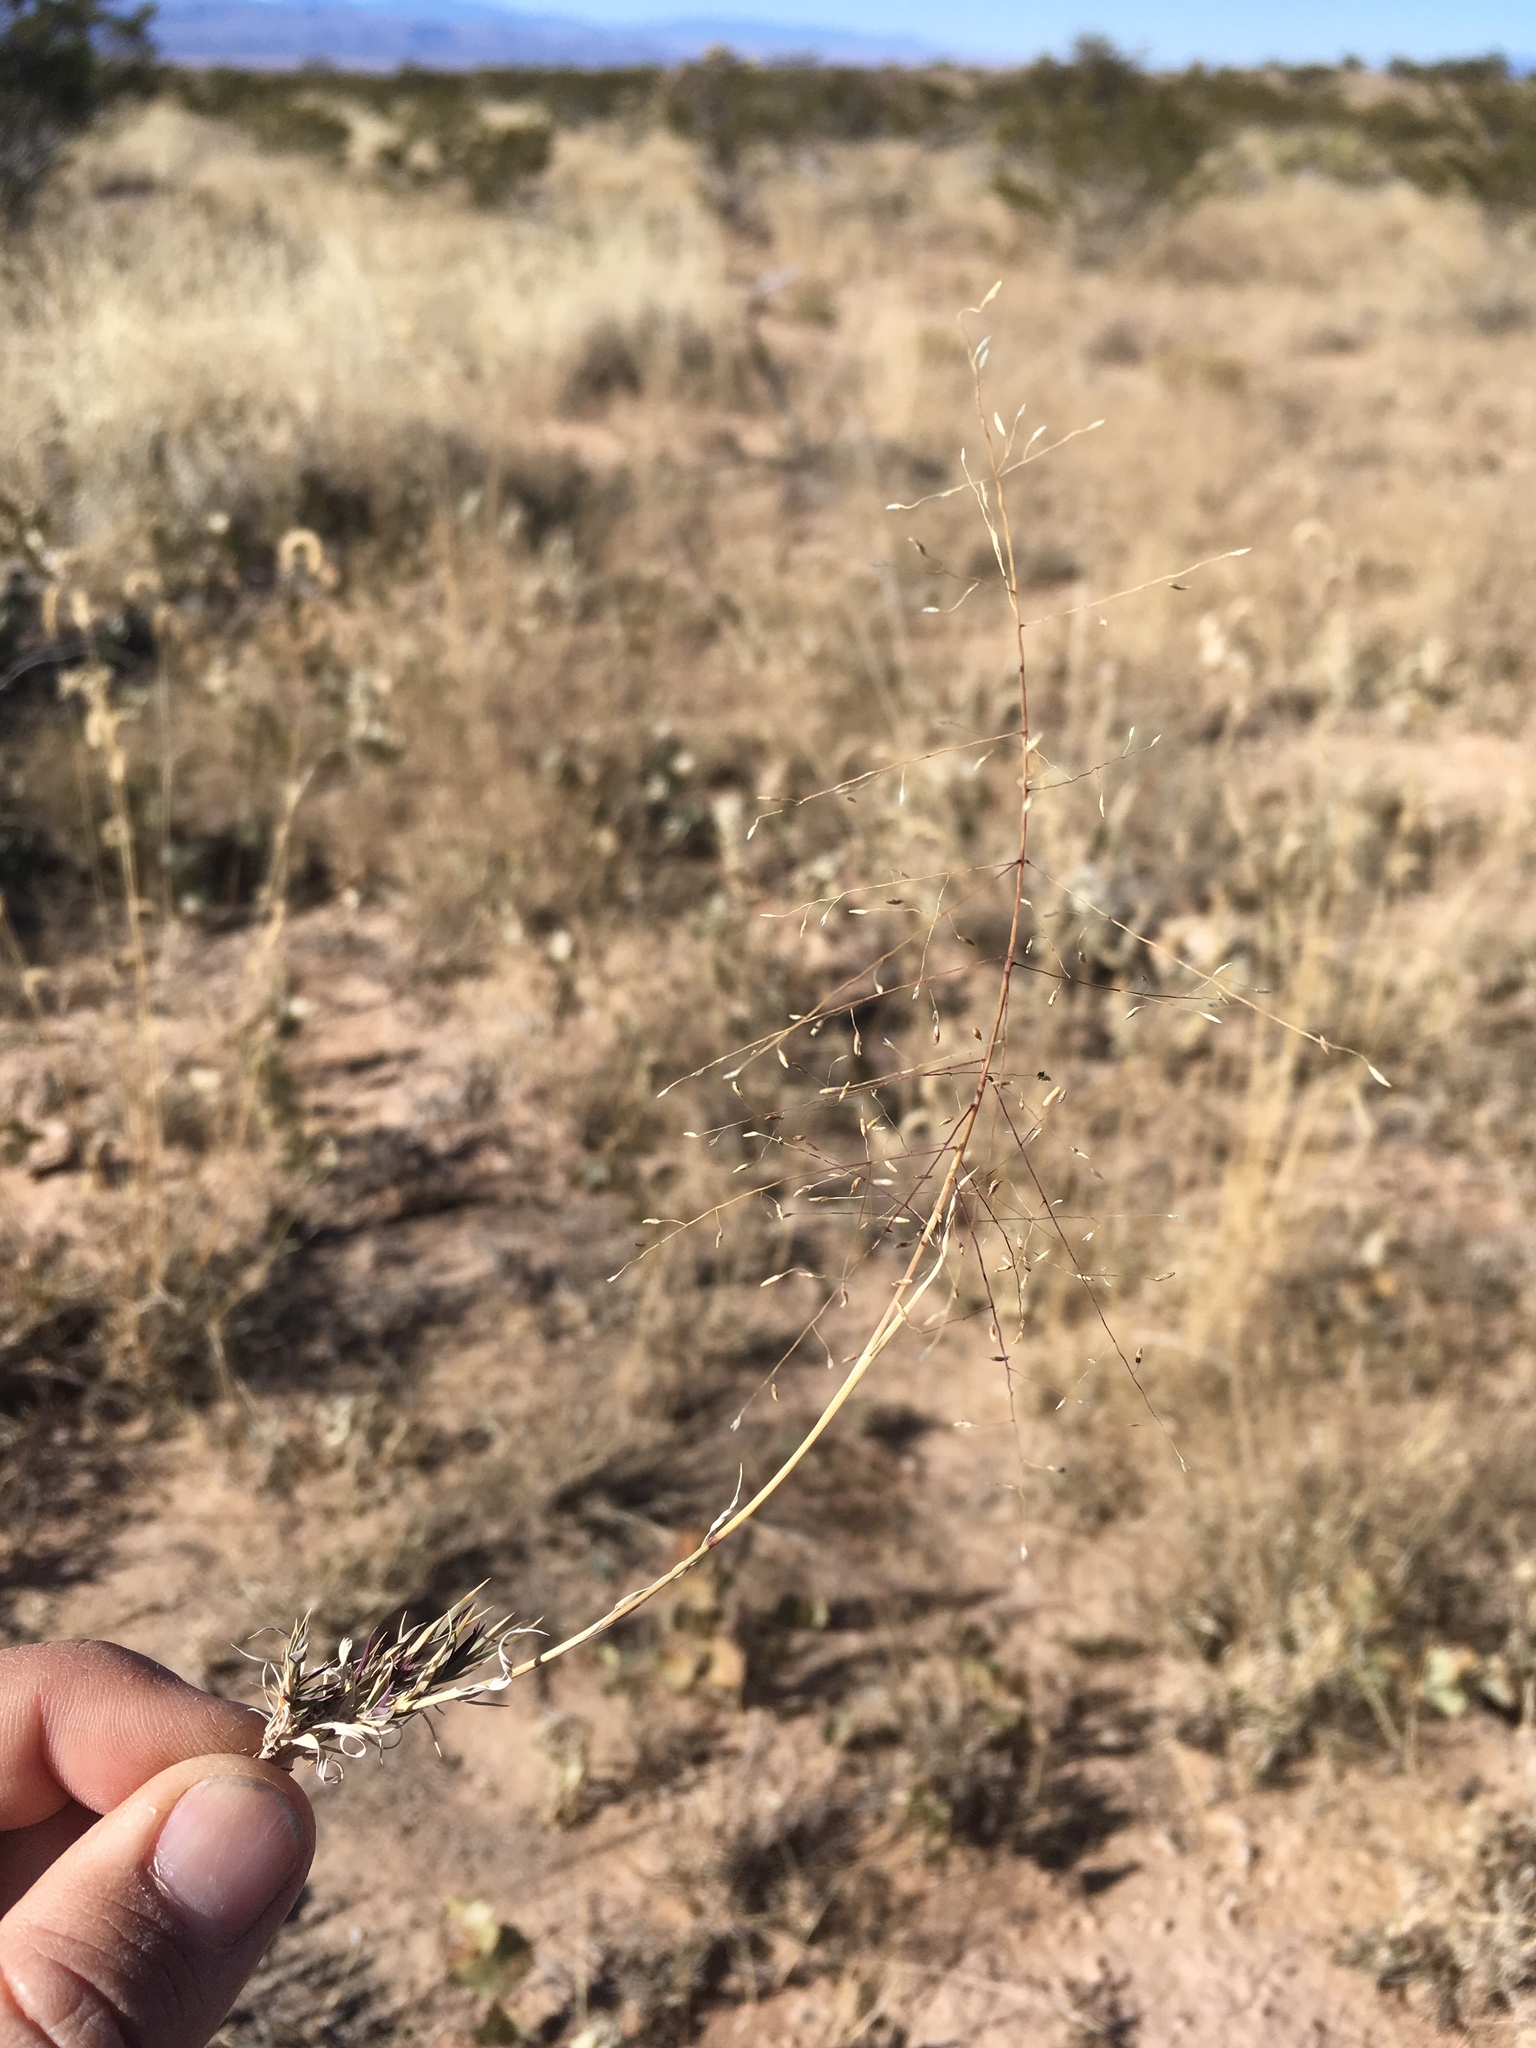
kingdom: Plantae
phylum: Tracheophyta
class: Liliopsida
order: Poales
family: Poaceae
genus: Muhlenbergia
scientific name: Muhlenbergia arenacea
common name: Ear muhly
